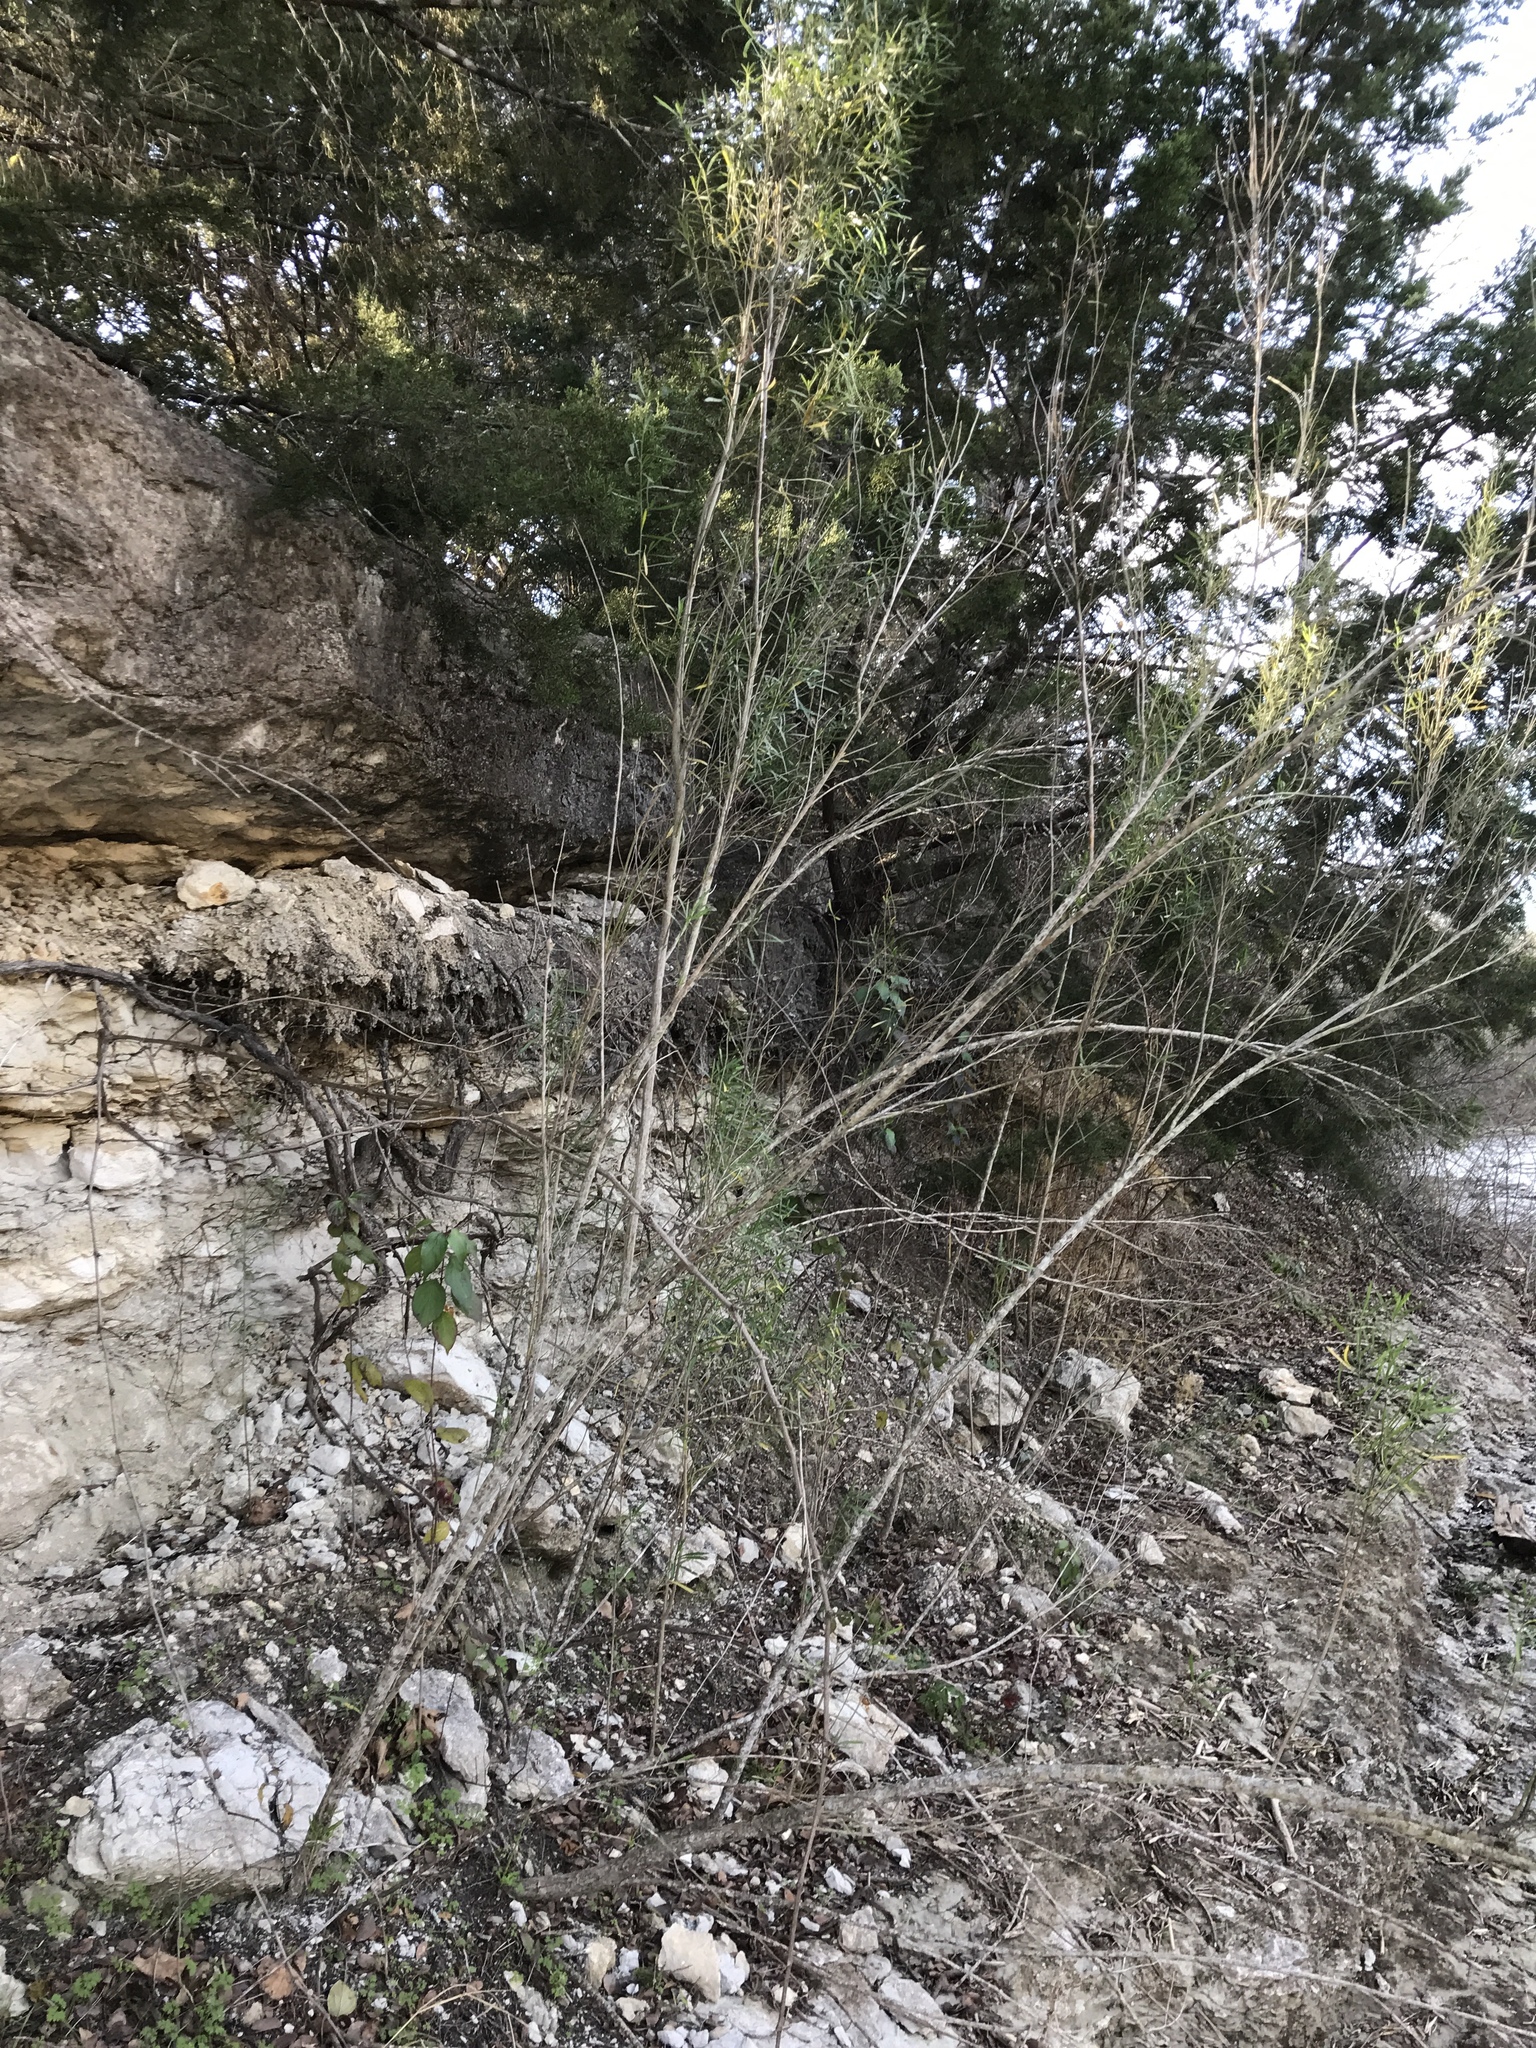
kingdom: Plantae
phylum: Tracheophyta
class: Magnoliopsida
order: Asterales
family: Asteraceae
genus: Baccharis
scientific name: Baccharis neglecta
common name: Roosevelt-weed
